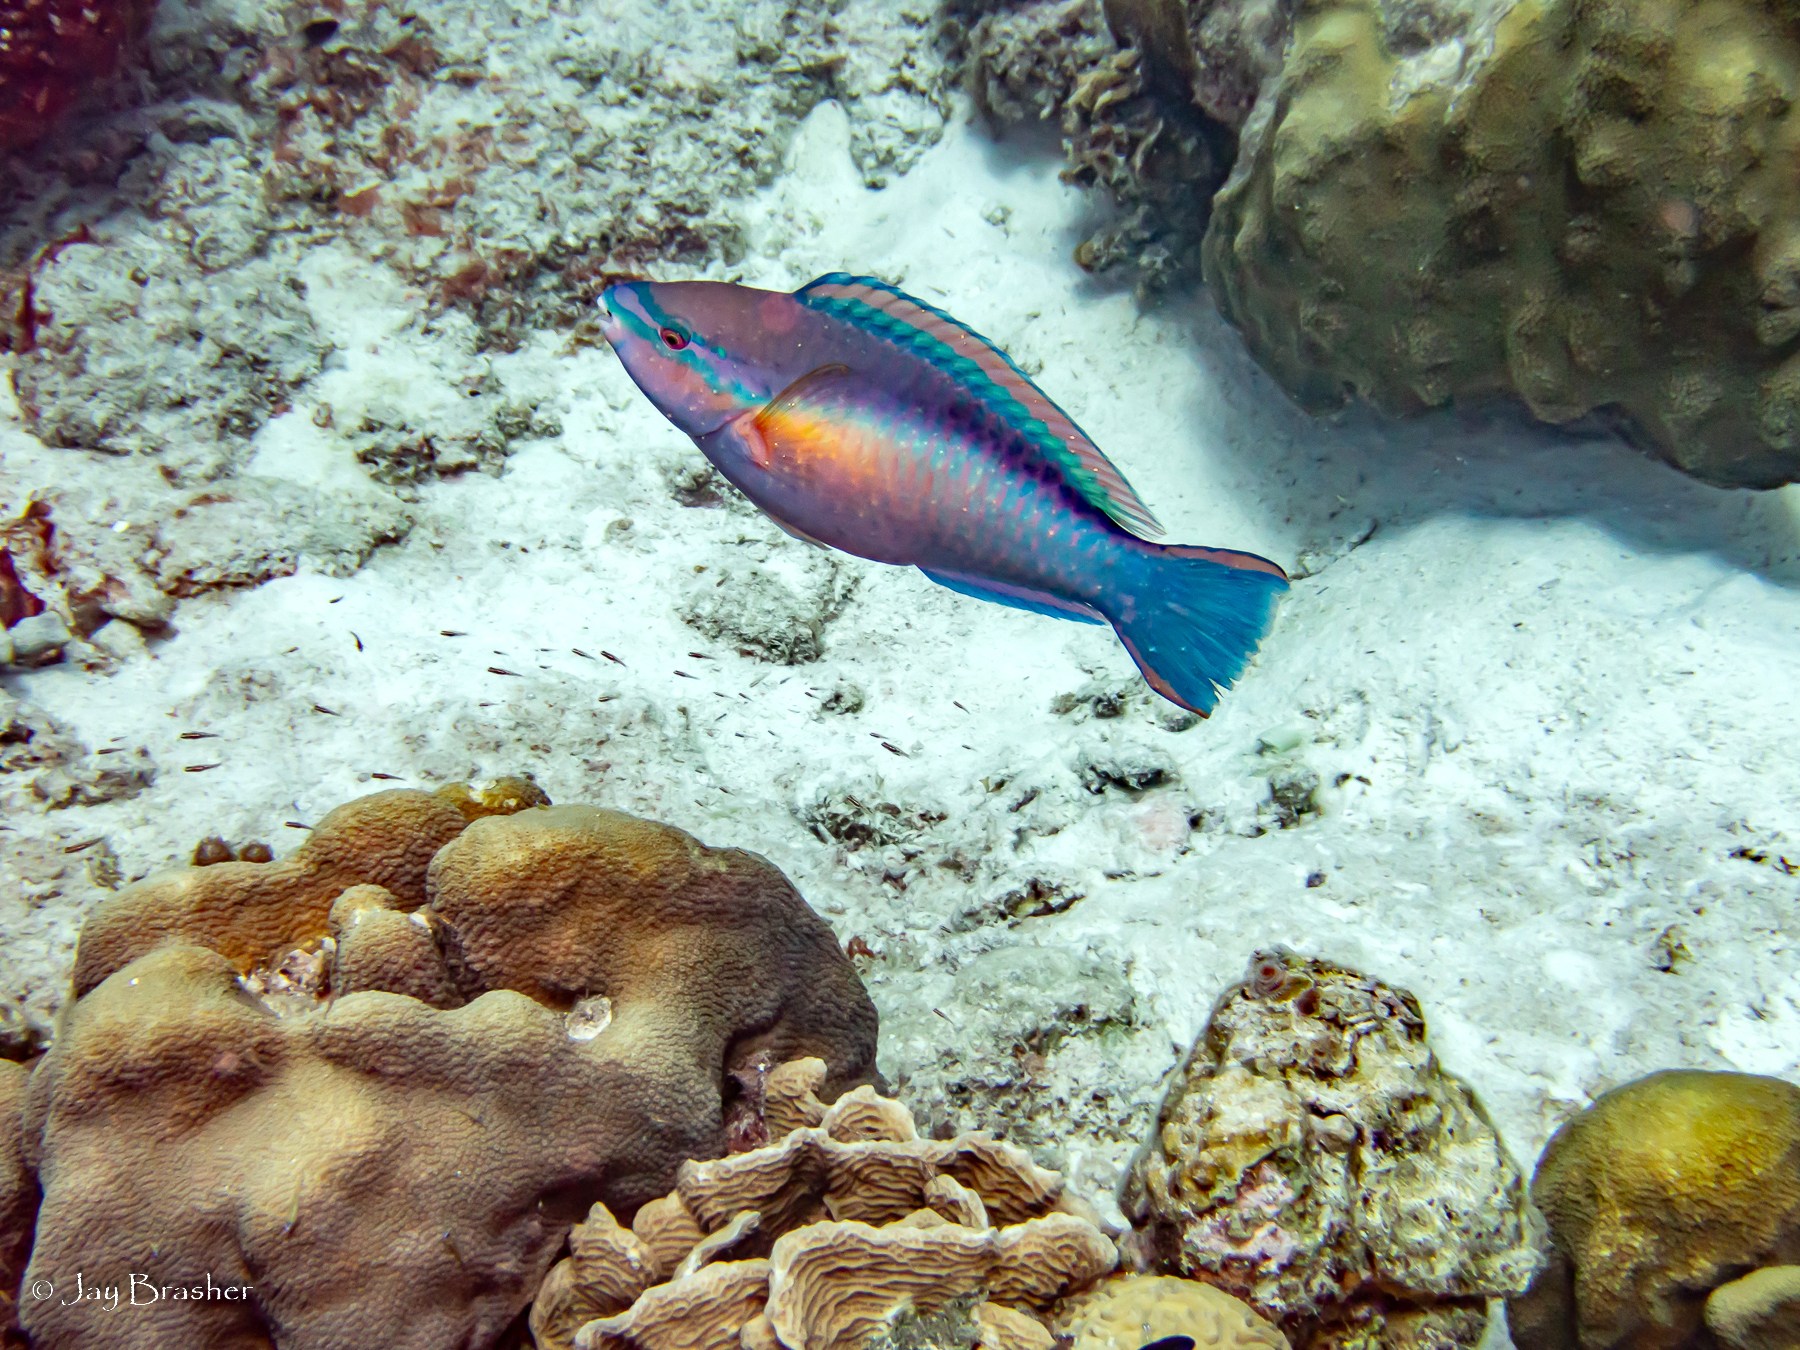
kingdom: Animalia
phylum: Cnidaria
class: Anthozoa
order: Scleractinia
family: Merulinidae
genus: Orbicella
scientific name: Orbicella faveolata
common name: Mountainous star coral
